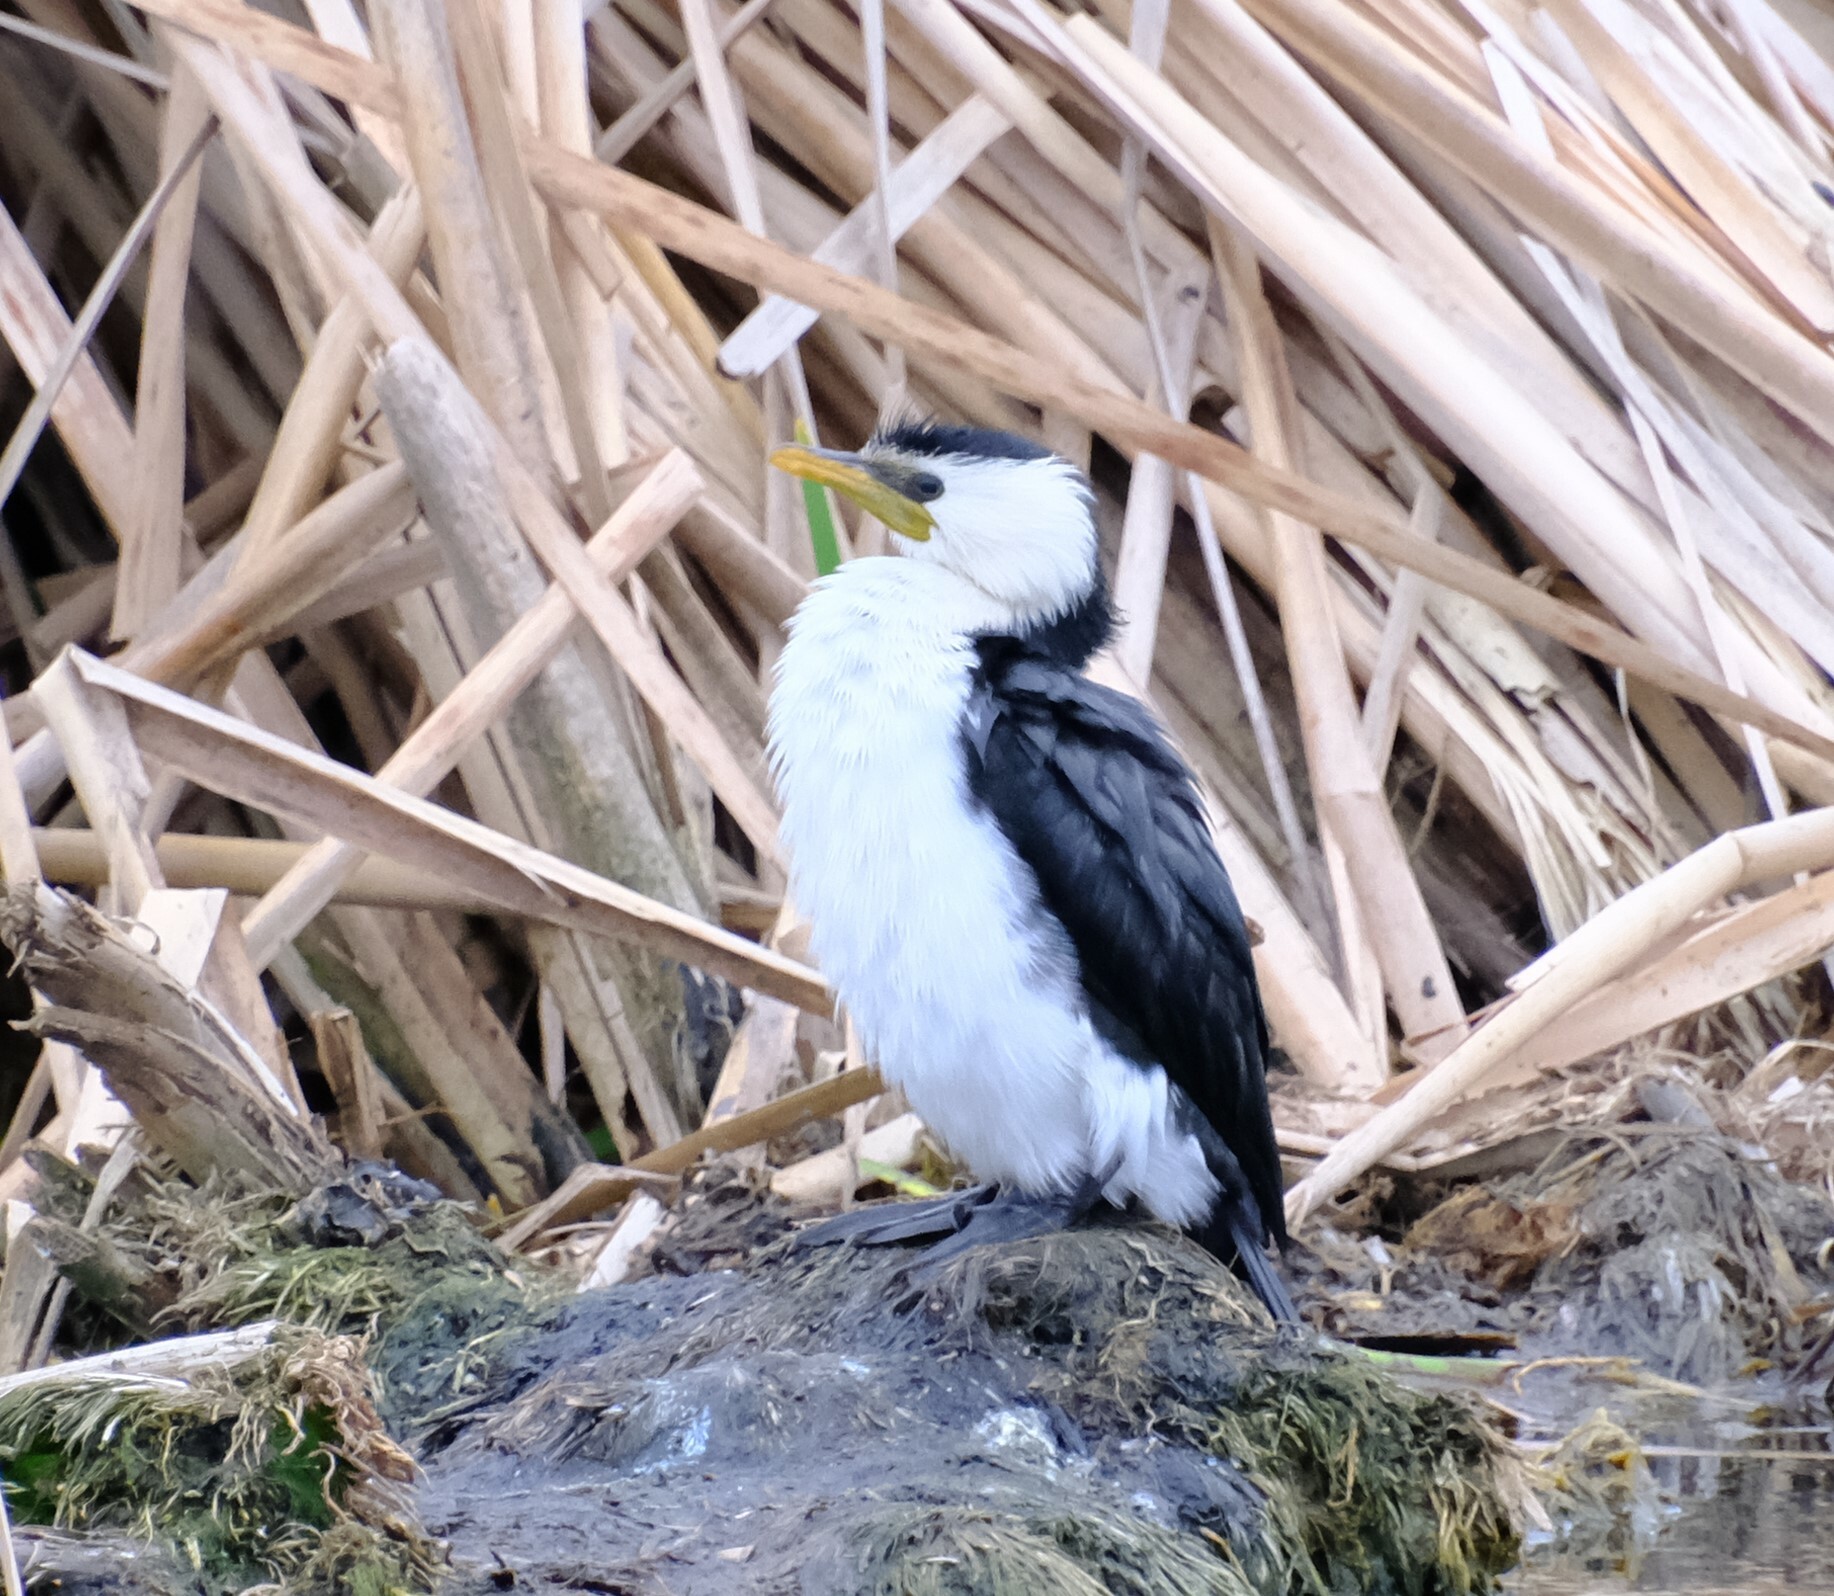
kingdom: Animalia
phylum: Chordata
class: Aves
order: Suliformes
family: Phalacrocoracidae
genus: Microcarbo
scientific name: Microcarbo melanoleucos
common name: Little pied cormorant
